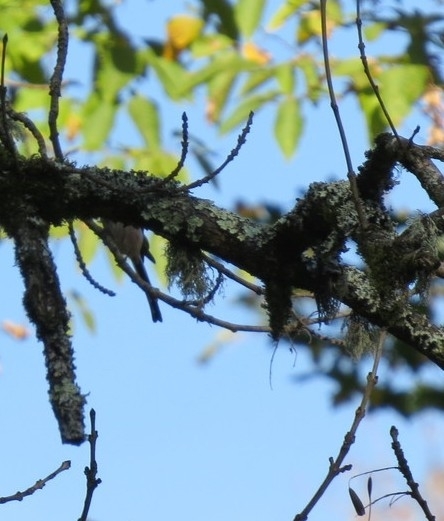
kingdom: Animalia
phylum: Chordata
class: Aves
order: Passeriformes
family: Aegithalidae
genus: Aegithalos
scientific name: Aegithalos caudatus
